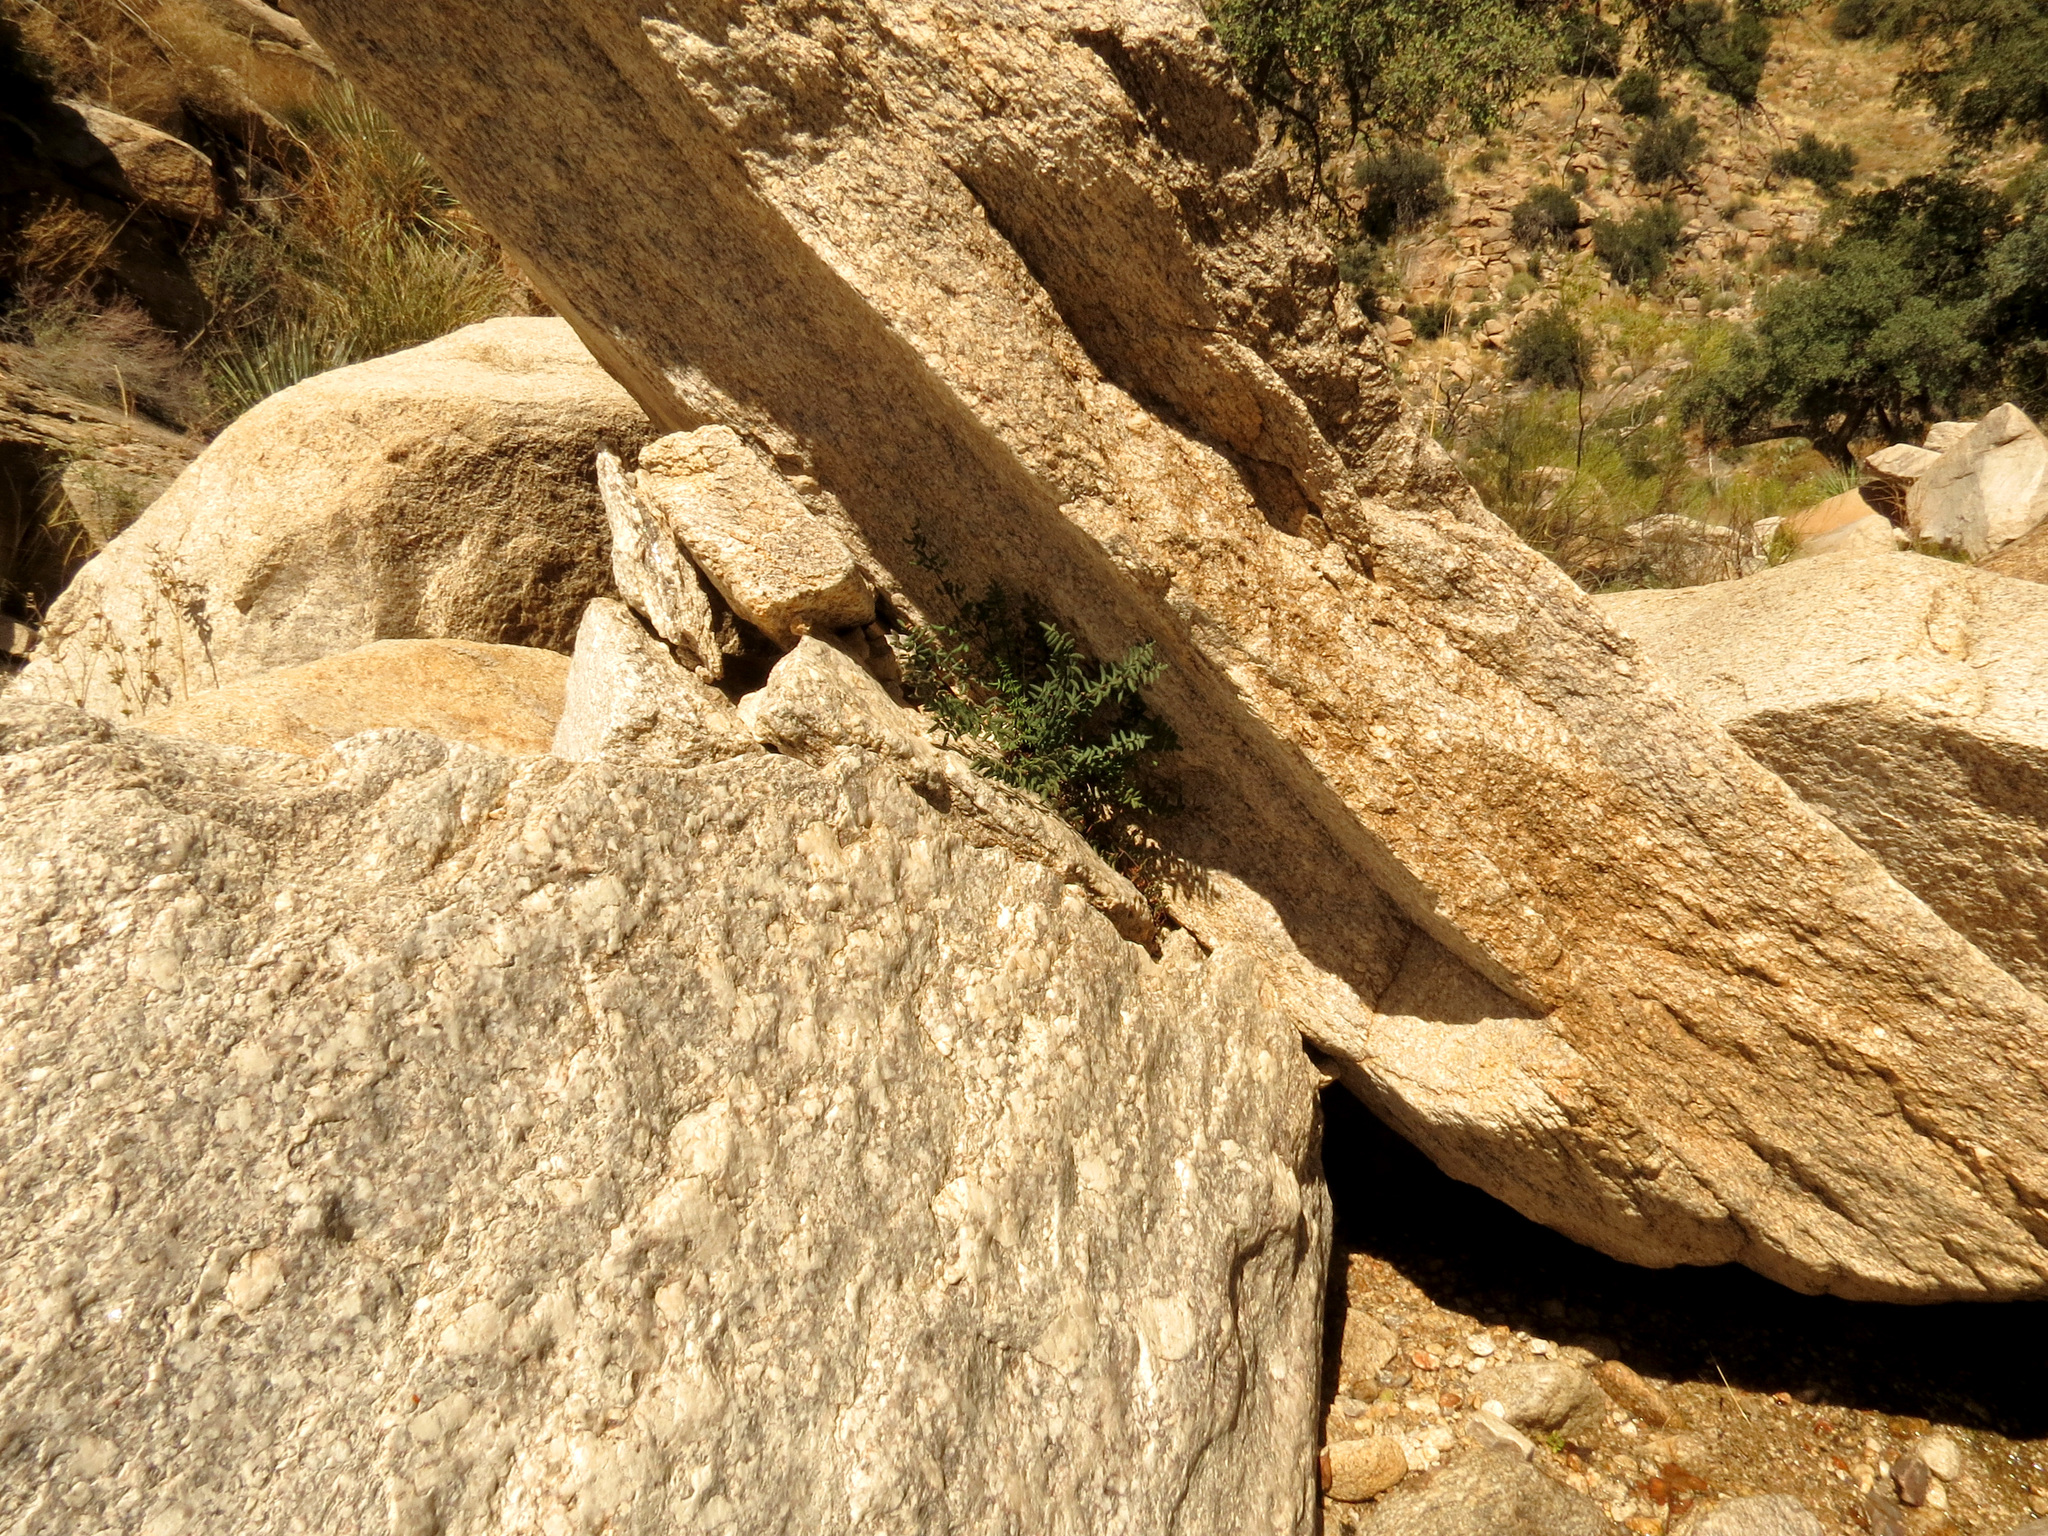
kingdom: Plantae
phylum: Tracheophyta
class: Polypodiopsida
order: Polypodiales
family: Pteridaceae
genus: Pellaea
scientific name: Pellaea wrightiana
